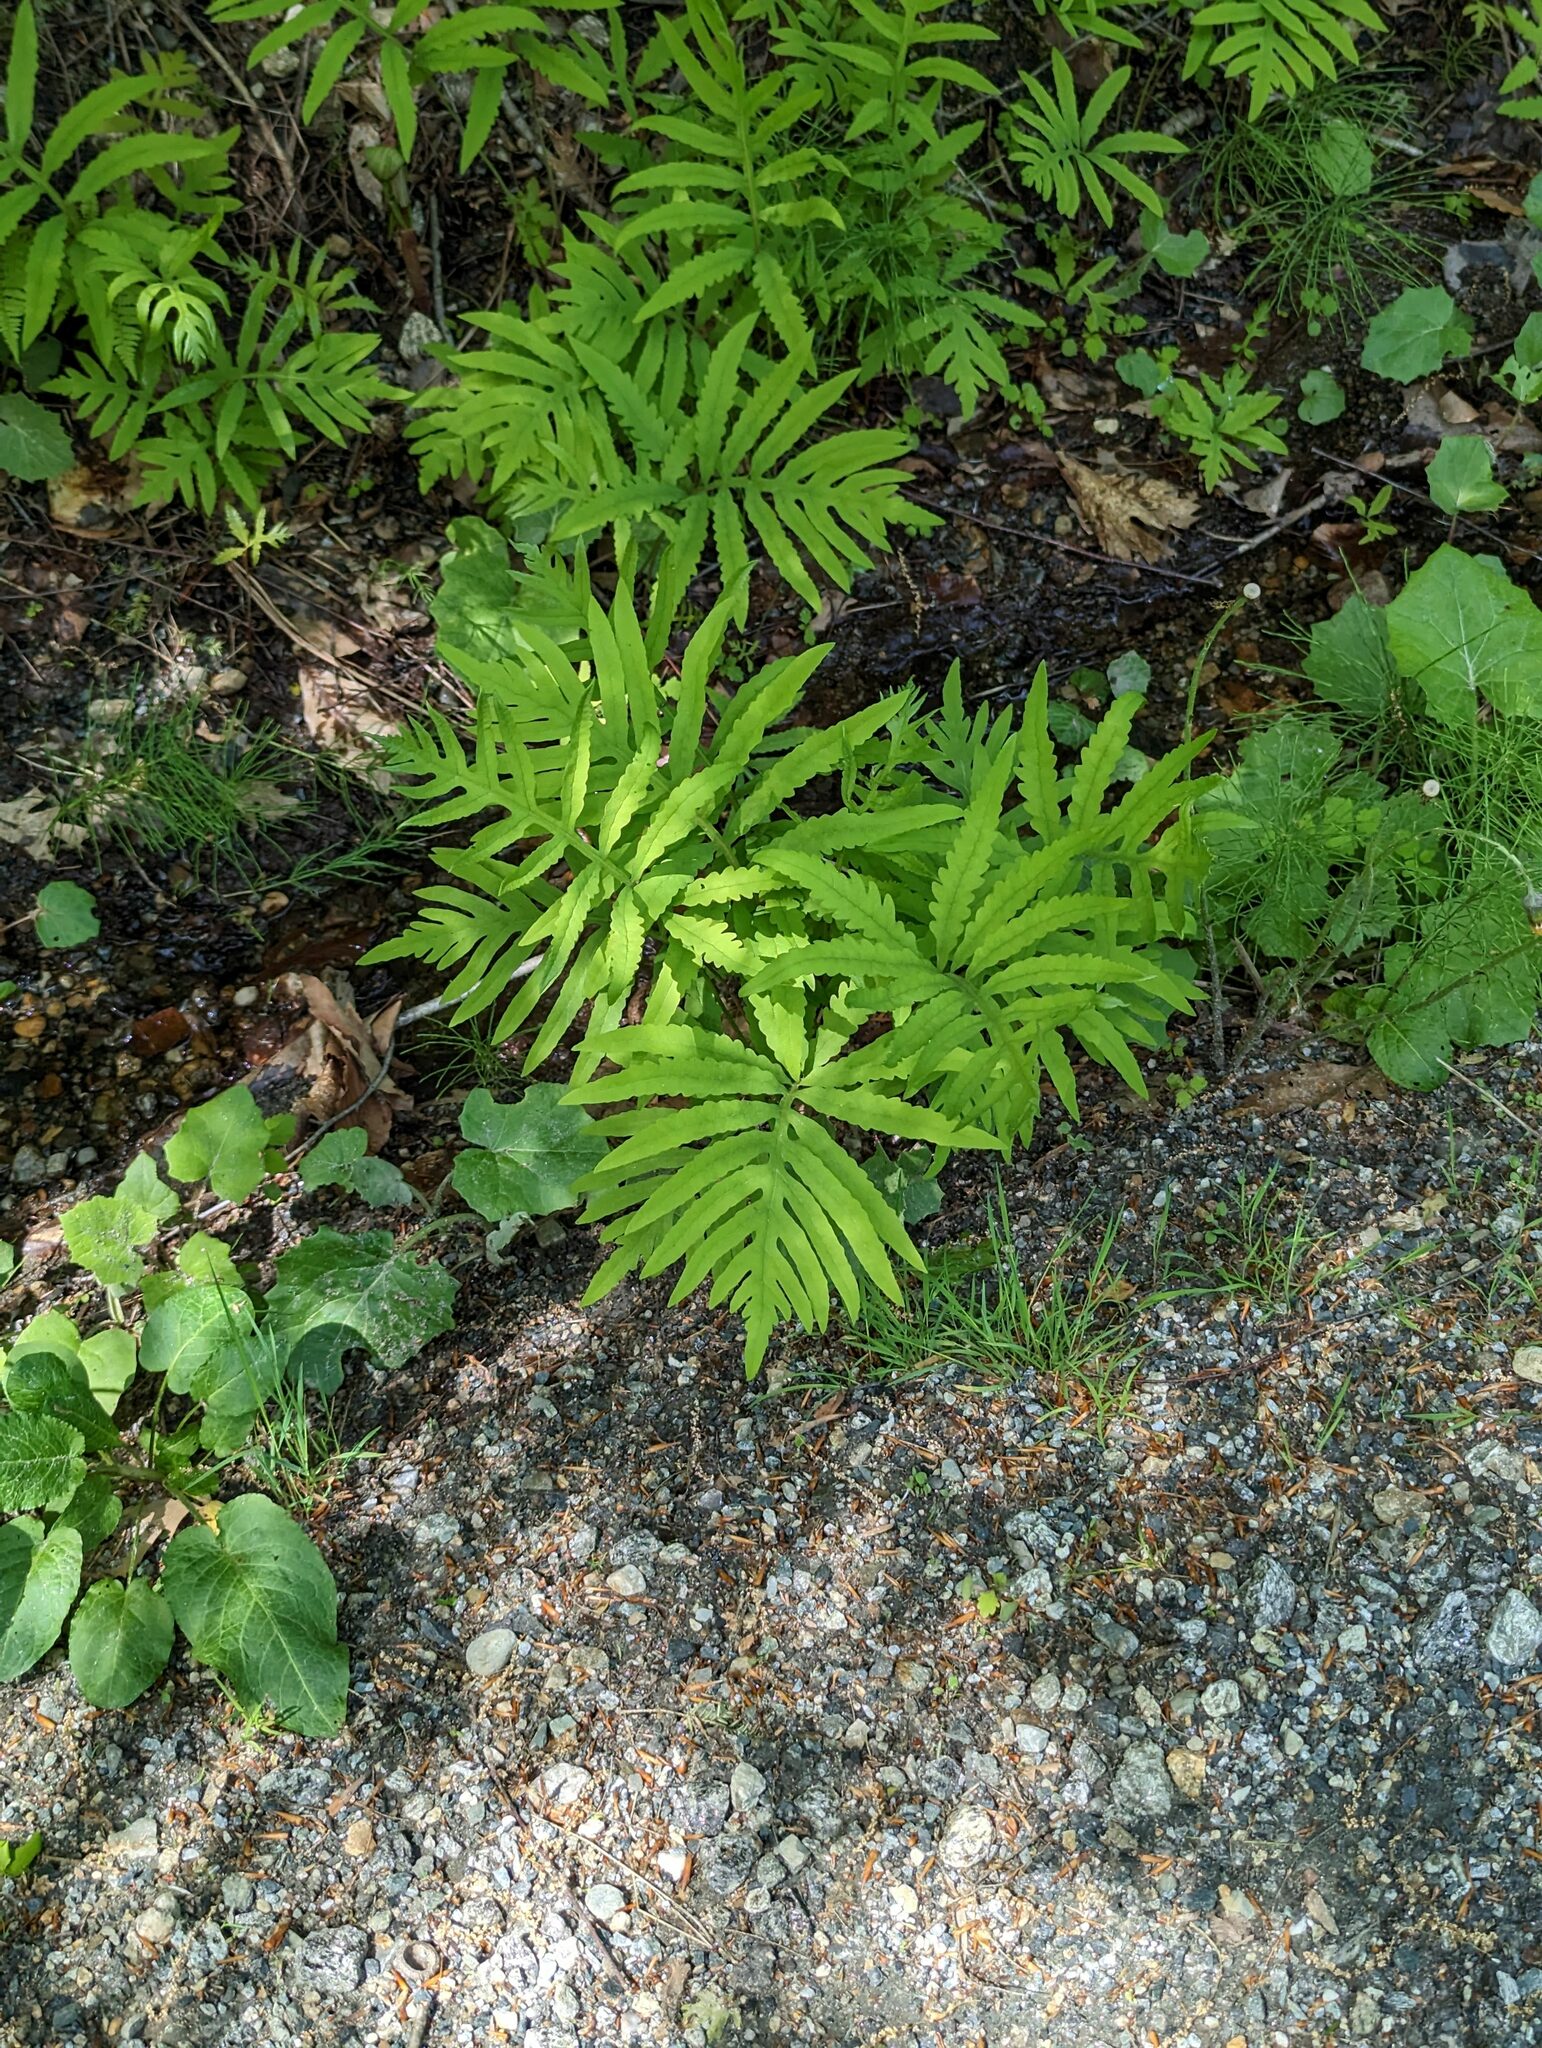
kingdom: Plantae
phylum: Tracheophyta
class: Polypodiopsida
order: Polypodiales
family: Onocleaceae
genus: Onoclea
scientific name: Onoclea sensibilis
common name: Sensitive fern
